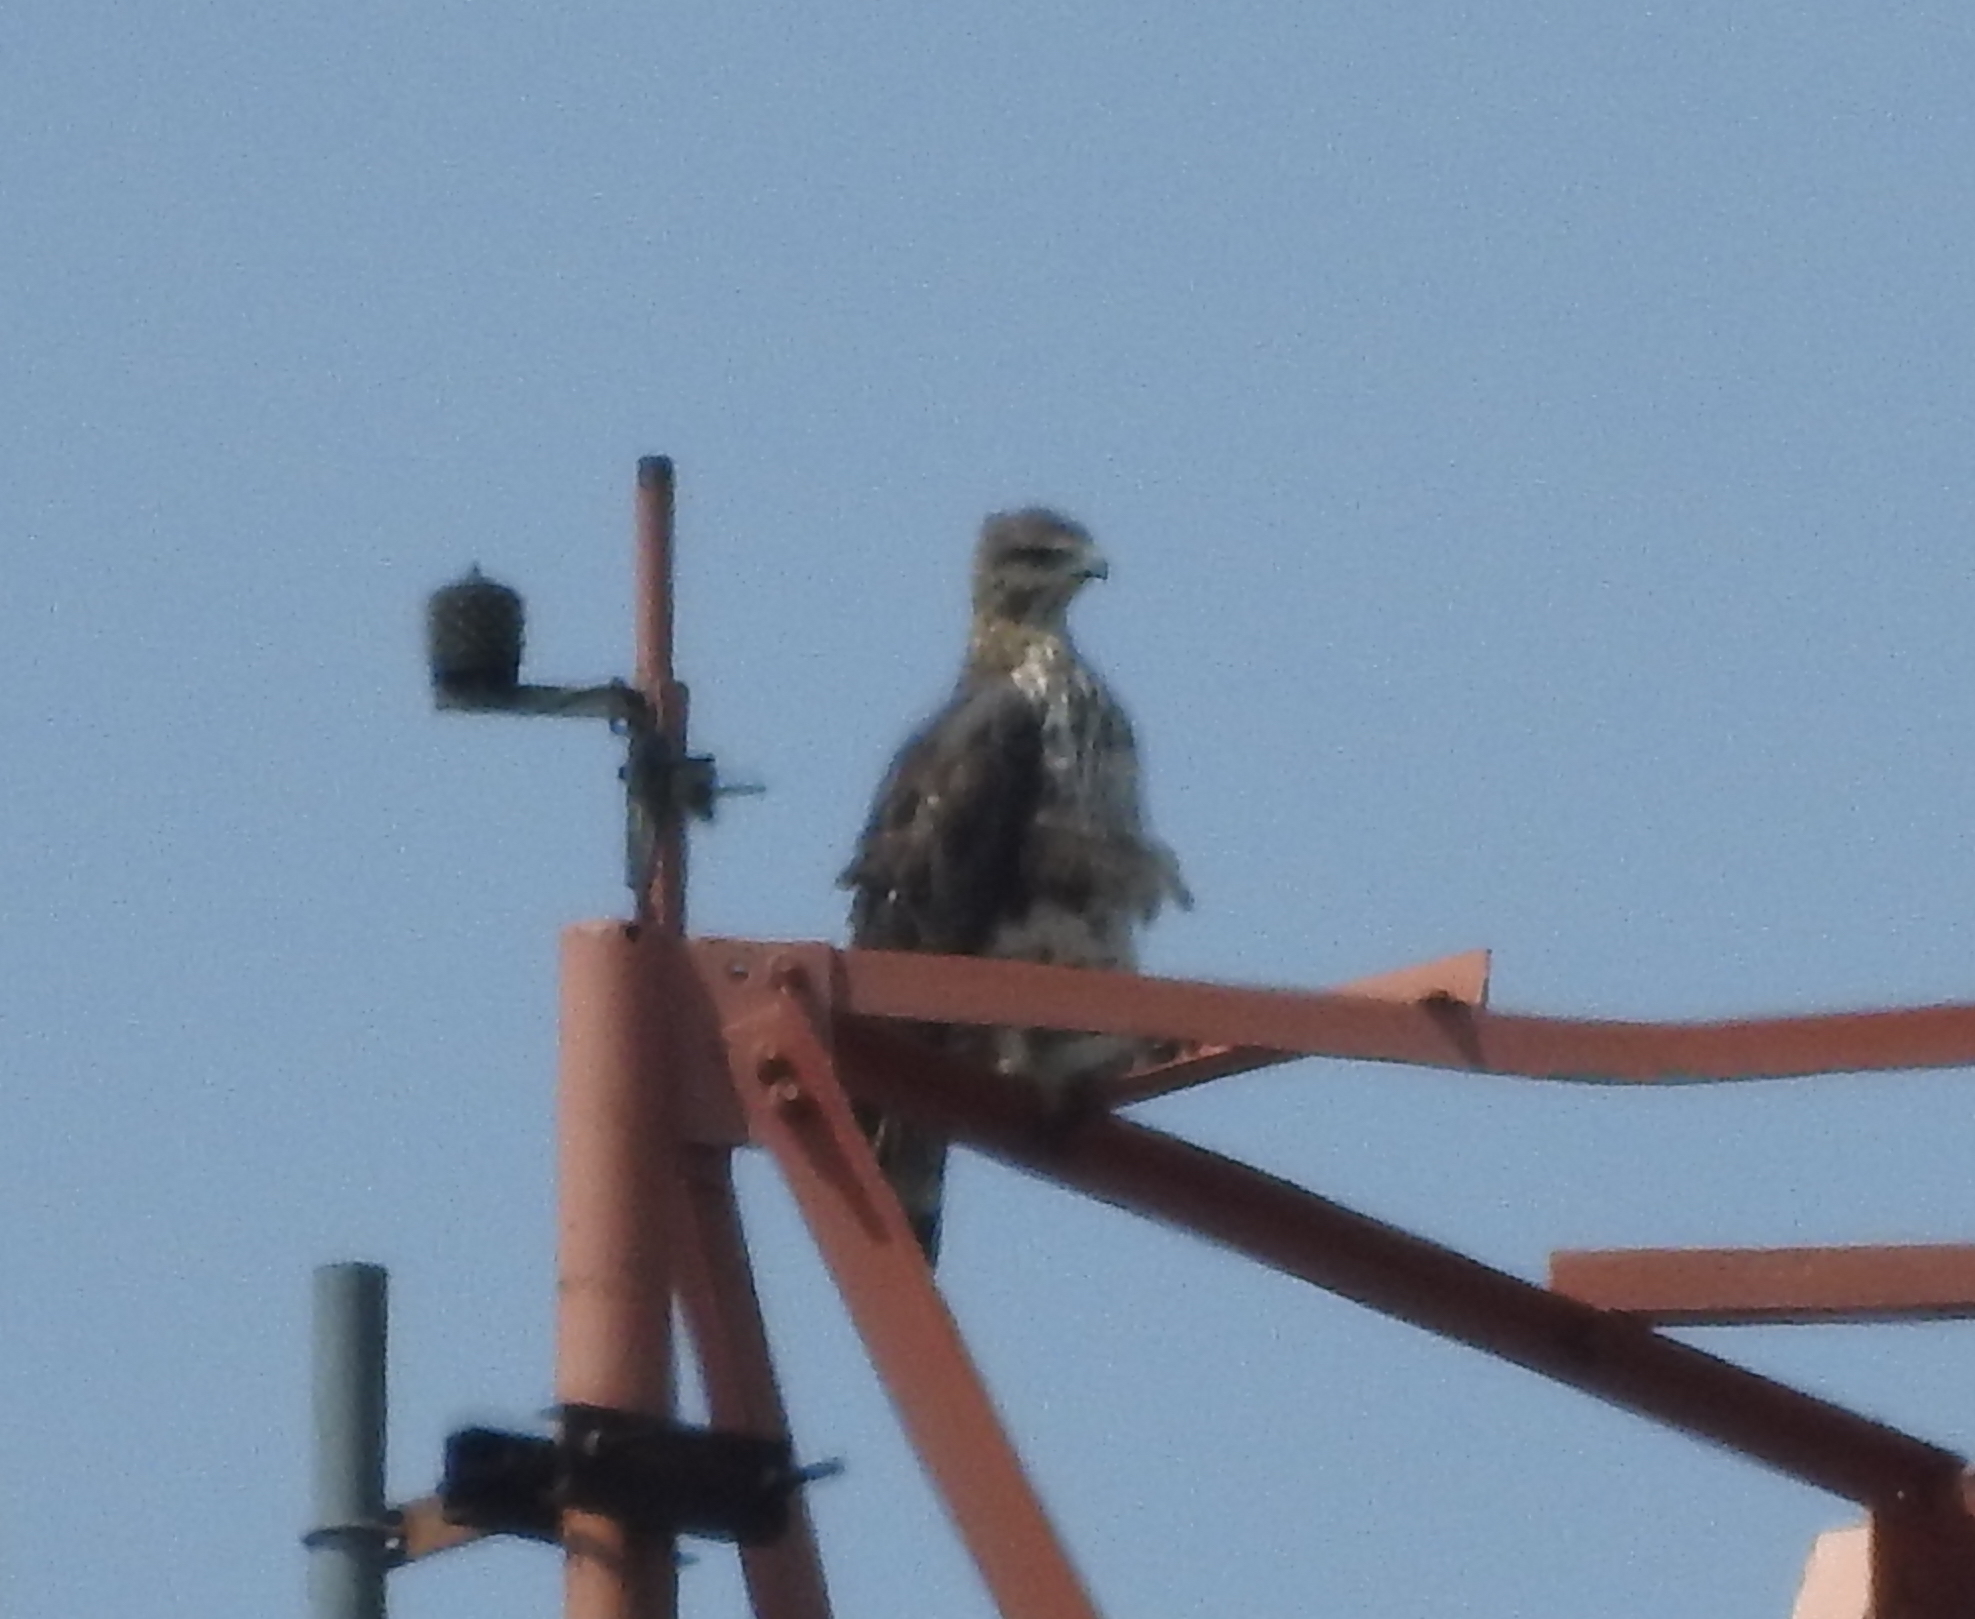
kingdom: Animalia
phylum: Chordata
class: Aves
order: Accipitriformes
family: Accipitridae
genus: Nisaetus
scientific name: Nisaetus cirrhatus
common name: Changeable hawk-eagle
